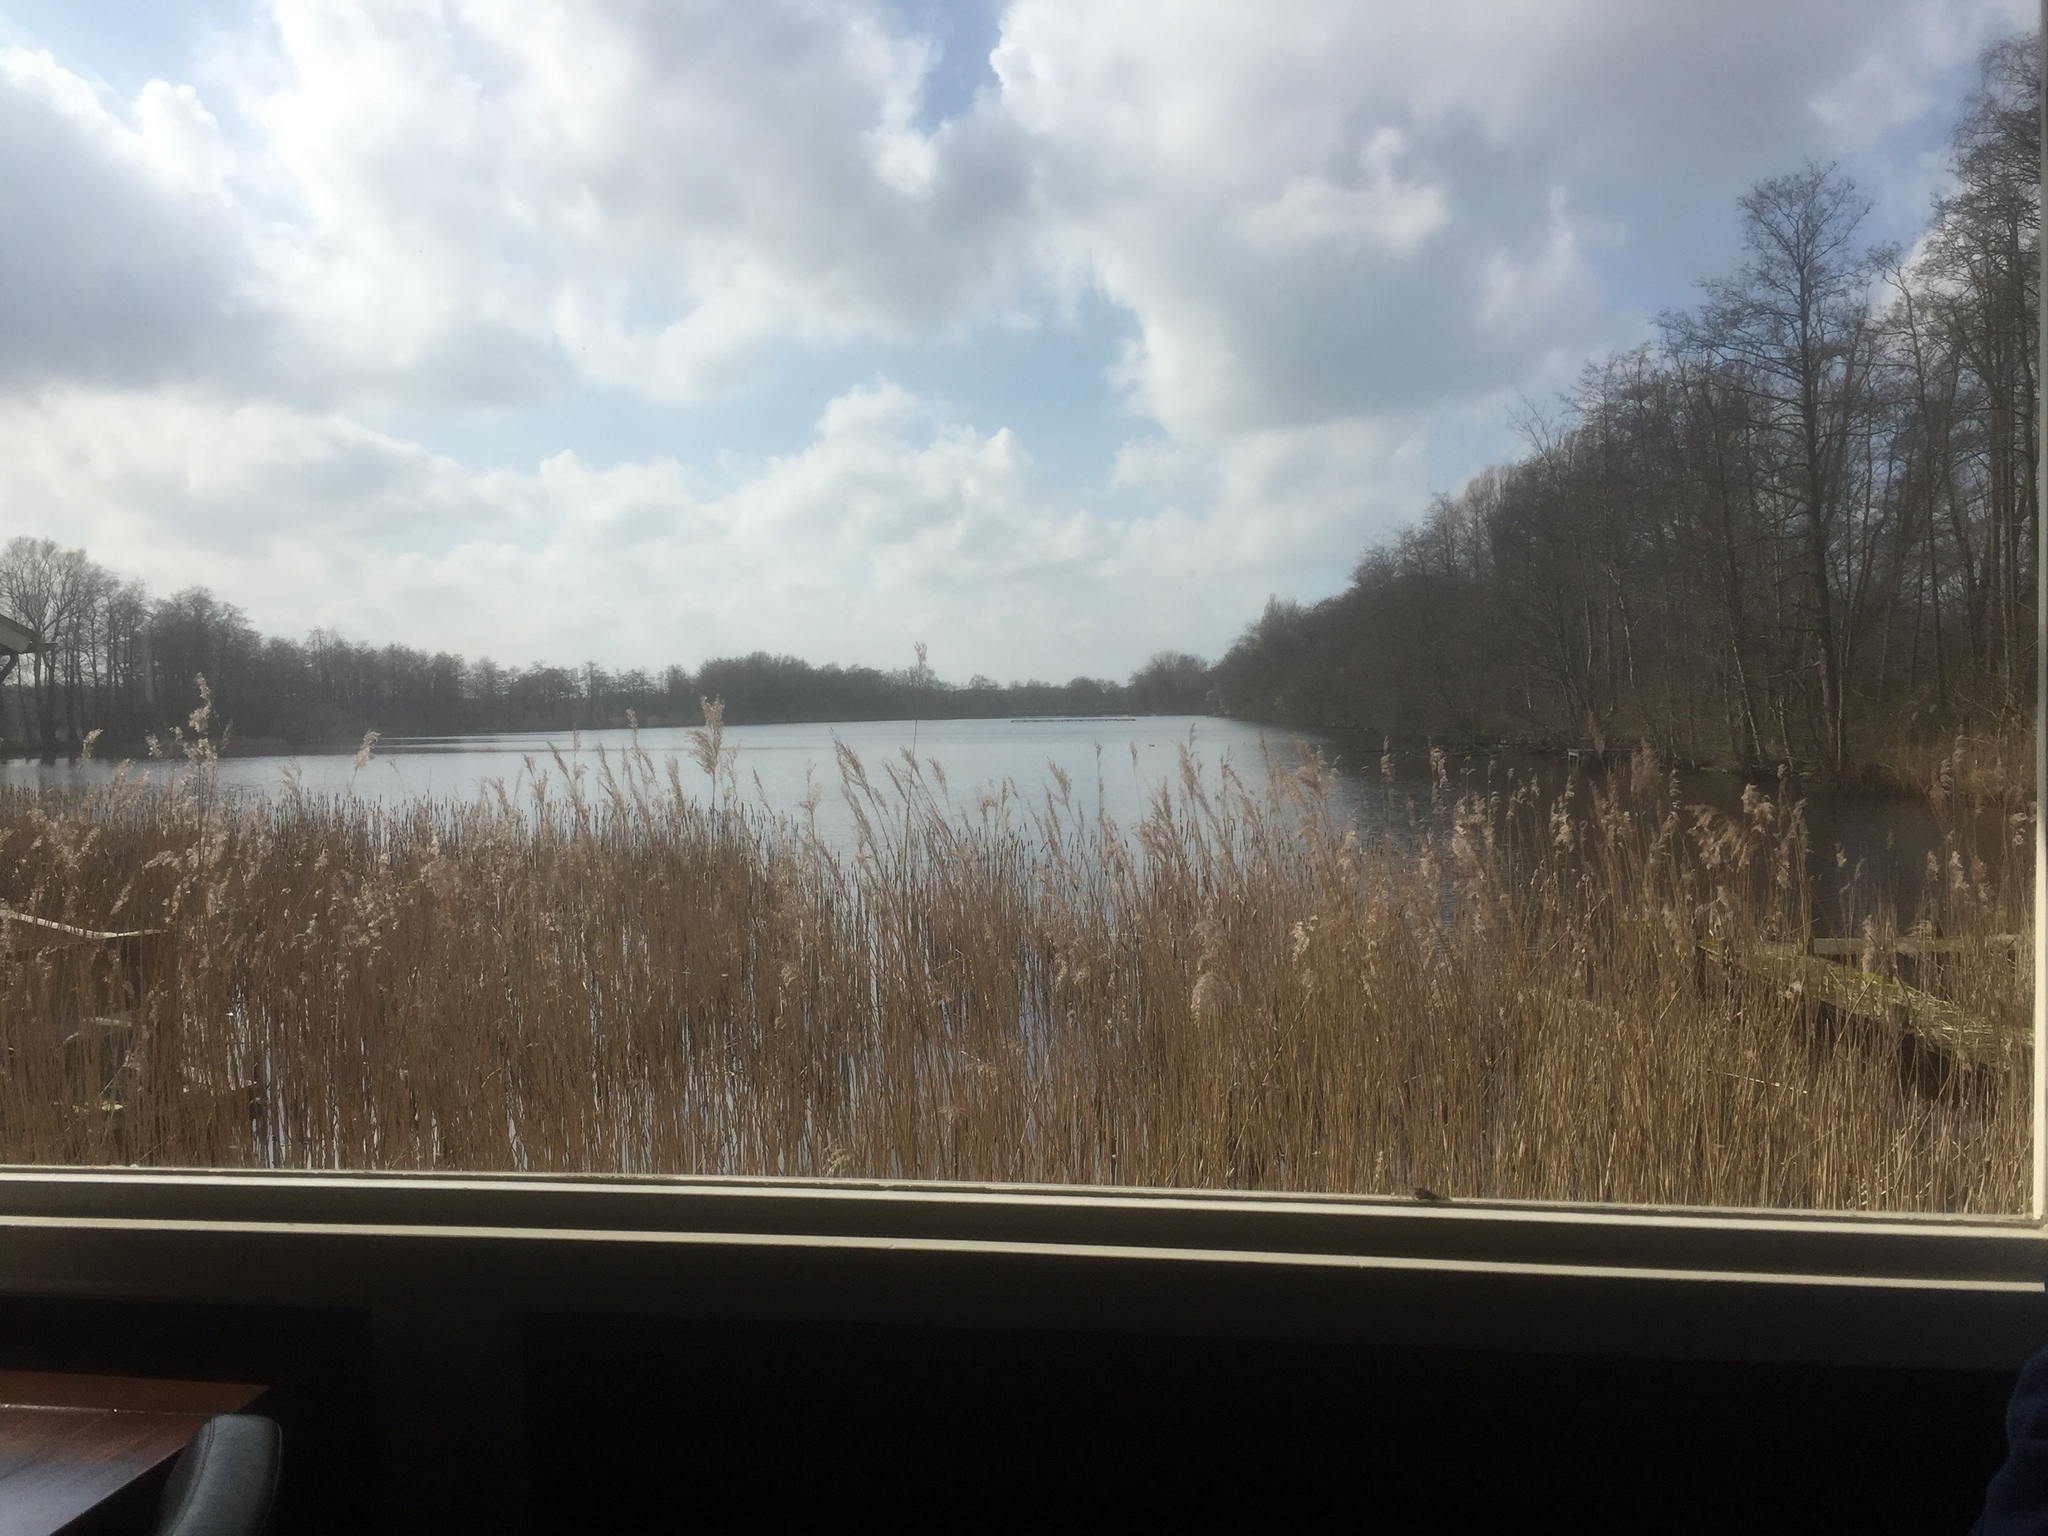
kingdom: Plantae
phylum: Tracheophyta
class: Liliopsida
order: Poales
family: Poaceae
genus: Phragmites
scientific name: Phragmites australis
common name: Common reed
